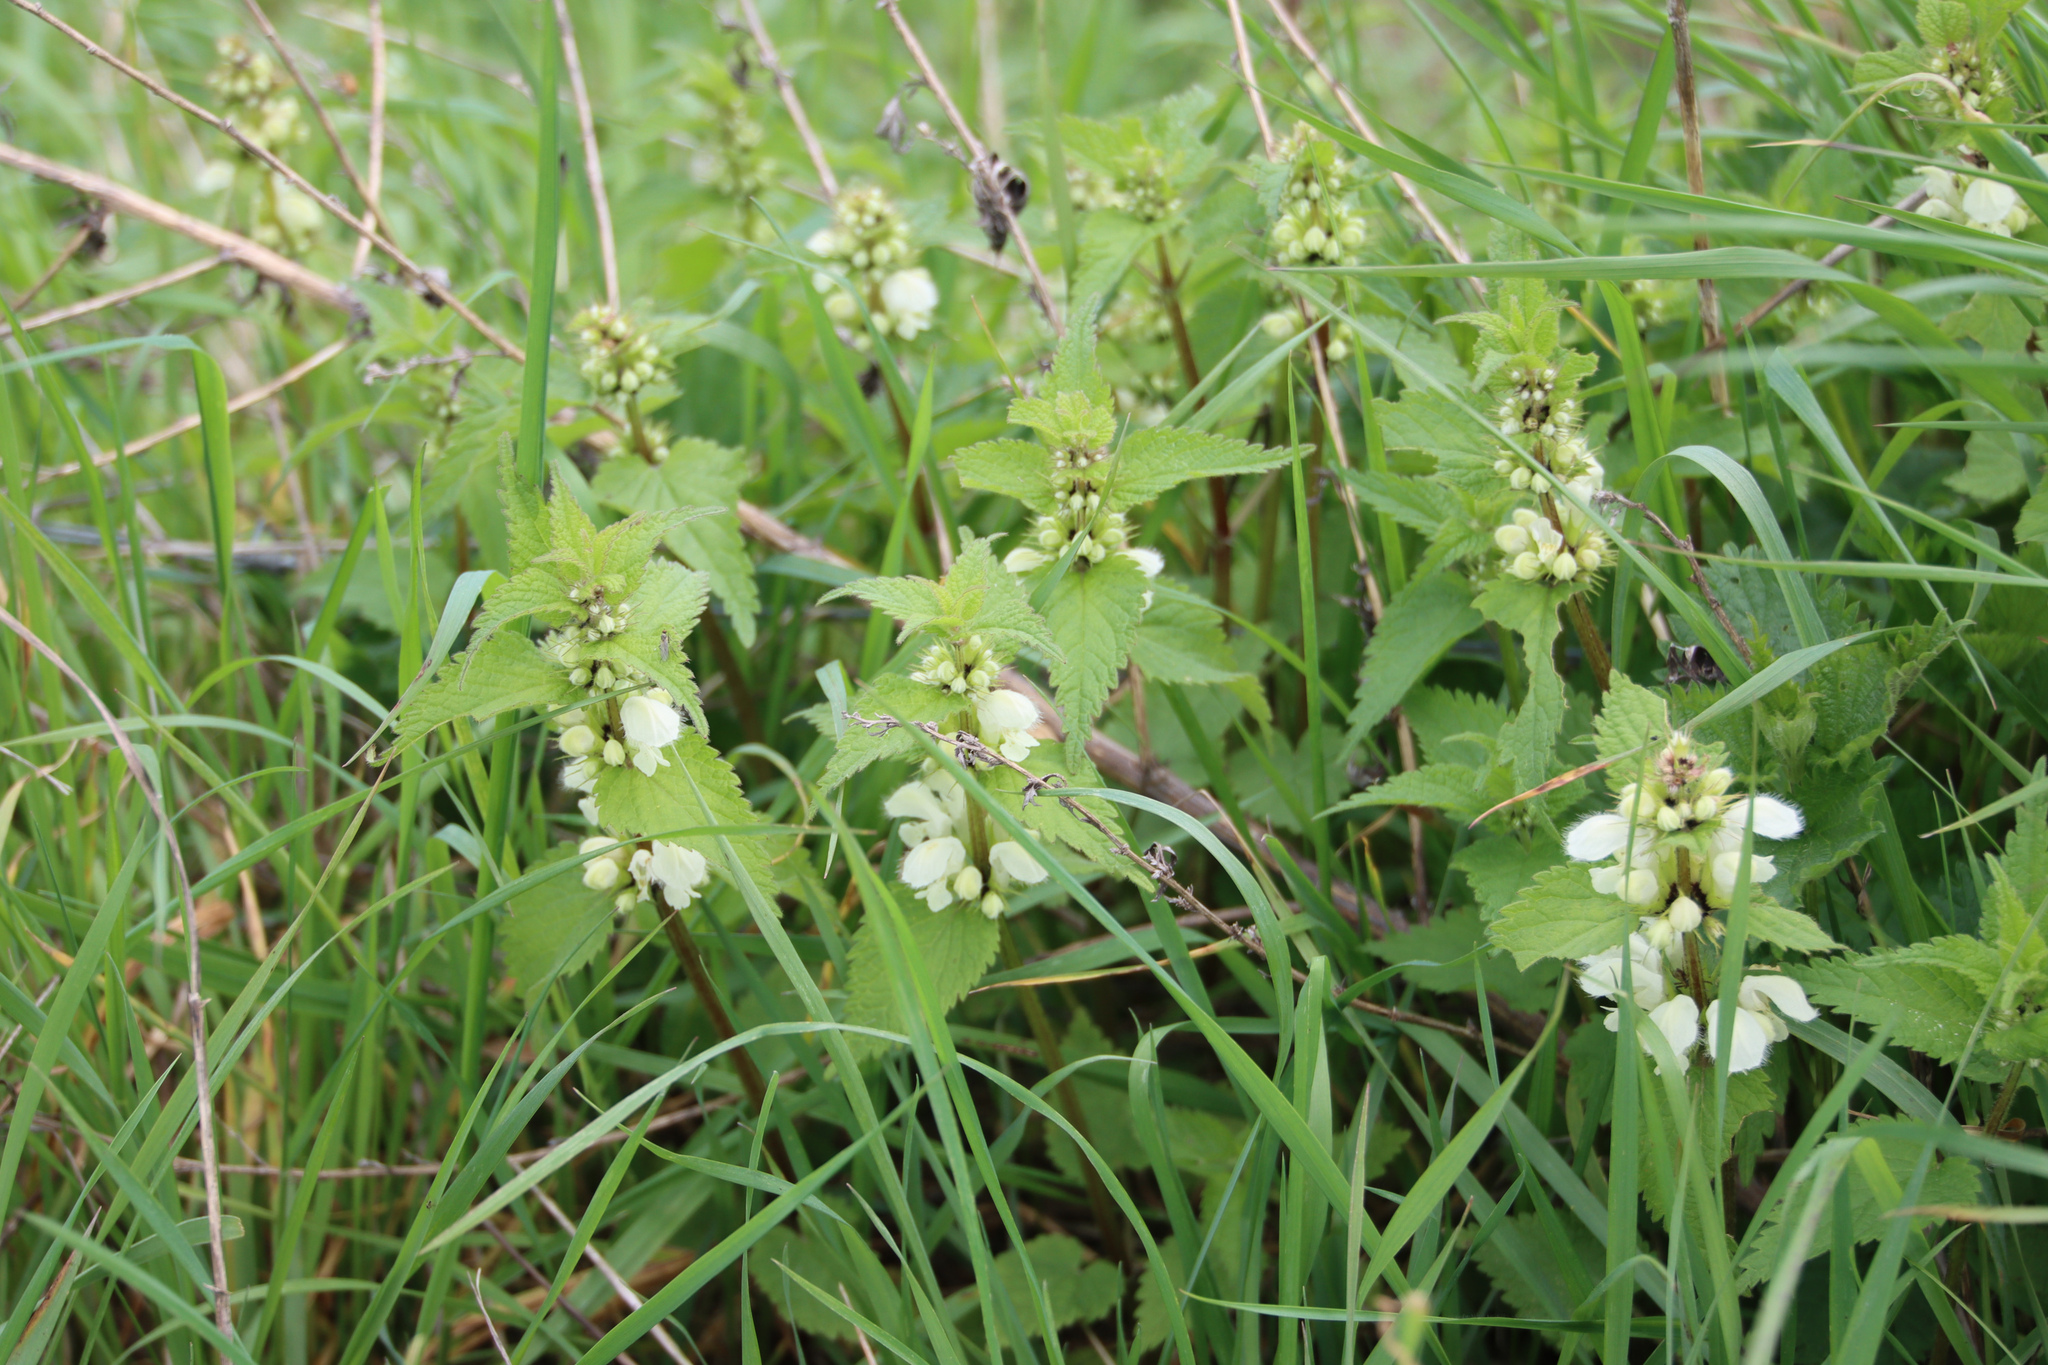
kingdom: Plantae
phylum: Tracheophyta
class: Magnoliopsida
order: Lamiales
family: Lamiaceae
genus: Lamium
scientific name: Lamium album
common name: White dead-nettle
